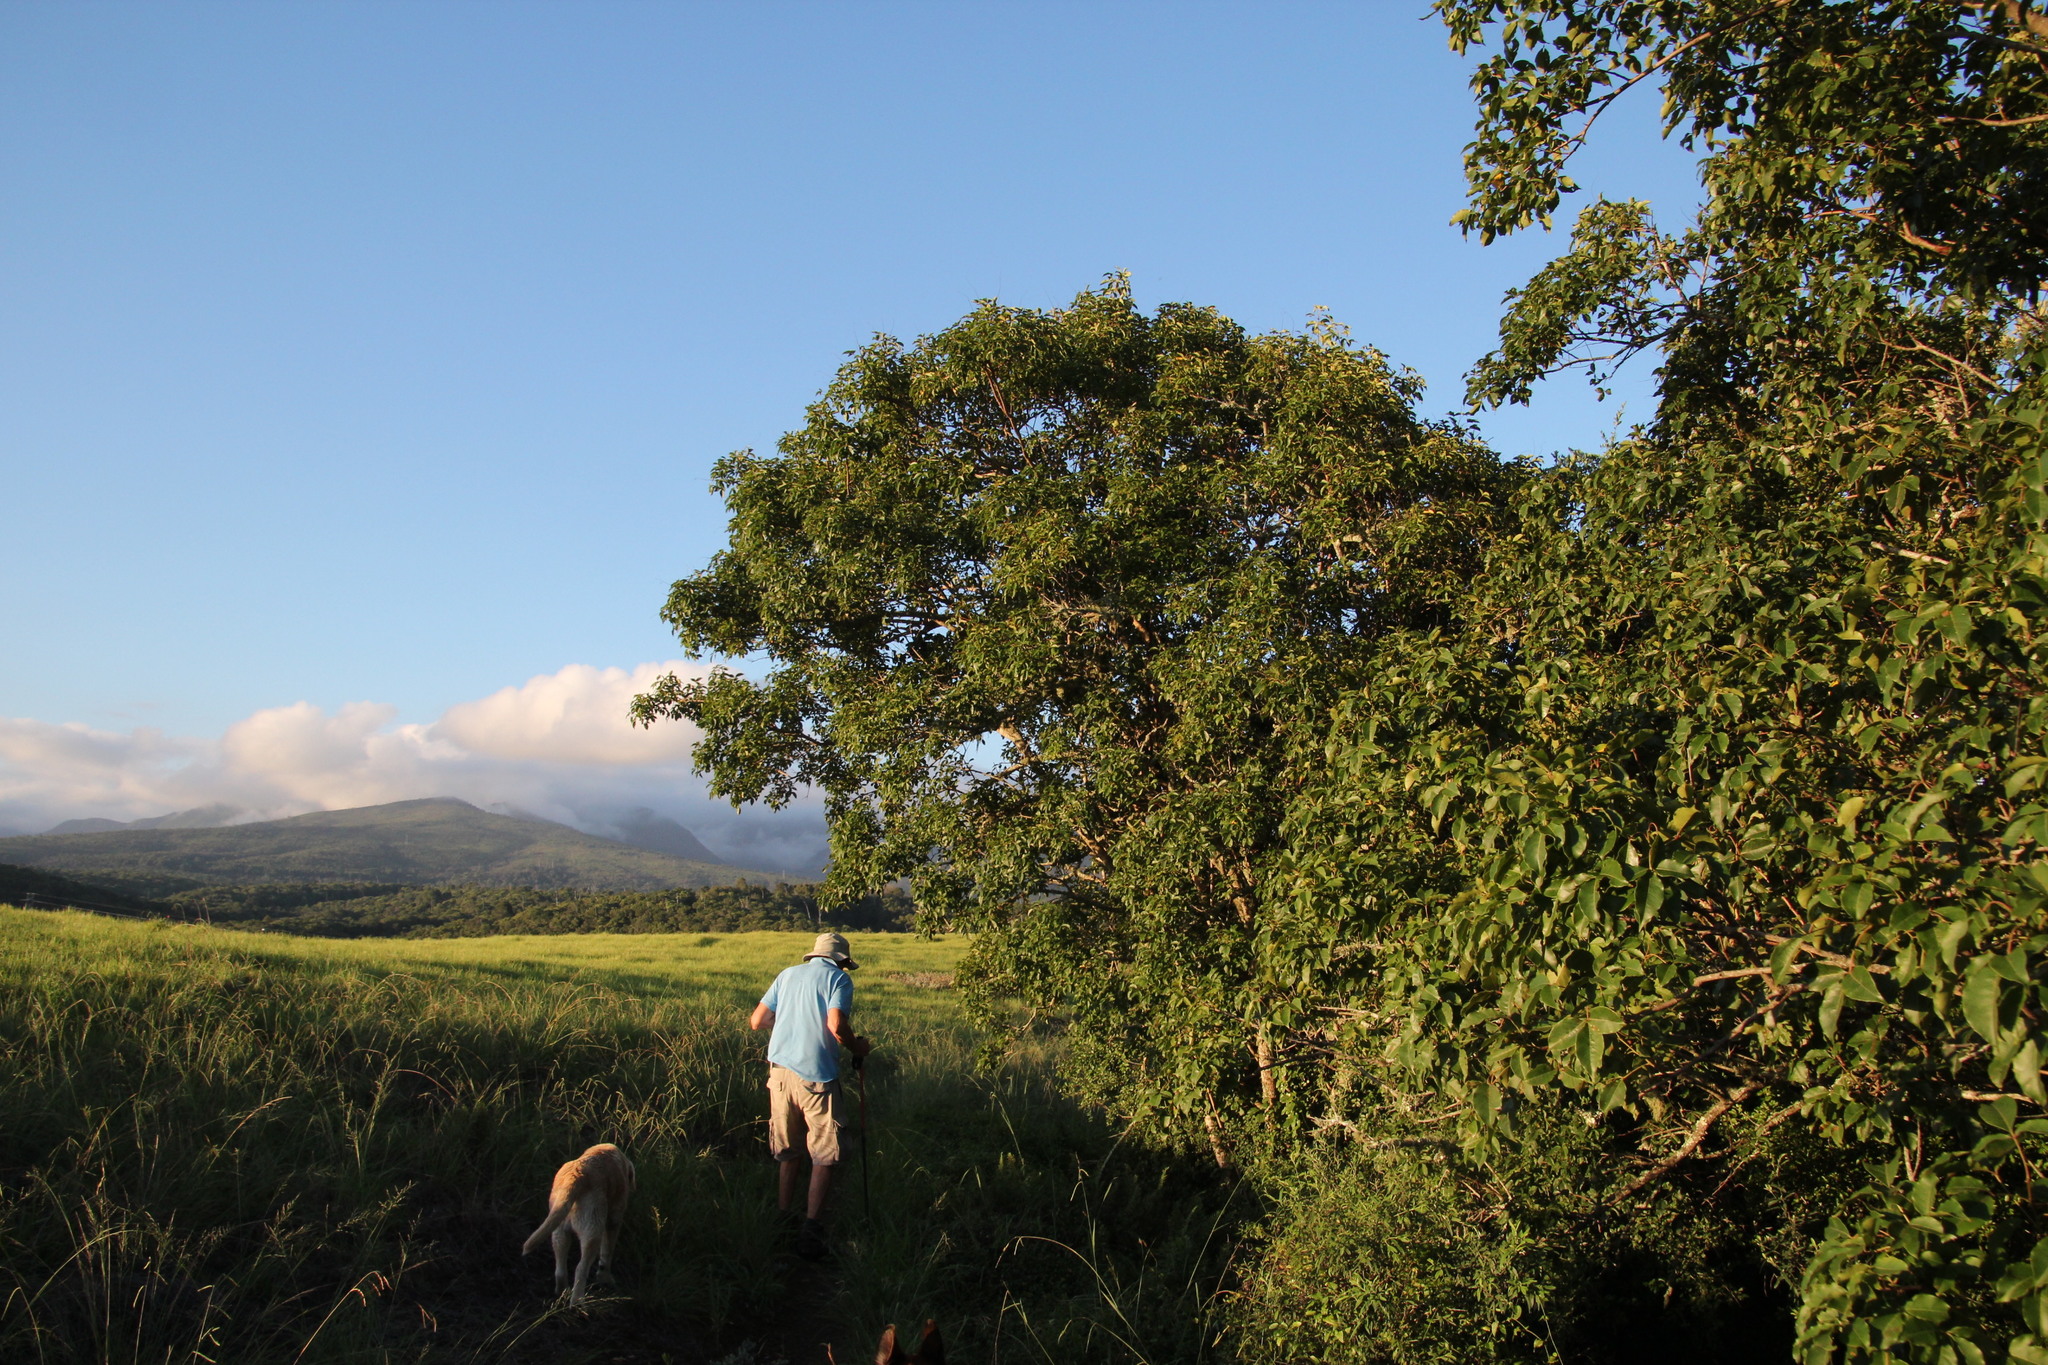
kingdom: Plantae
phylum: Tracheophyta
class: Magnoliopsida
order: Sapindales
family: Anacardiaceae
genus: Searsia
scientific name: Searsia chirindensis
